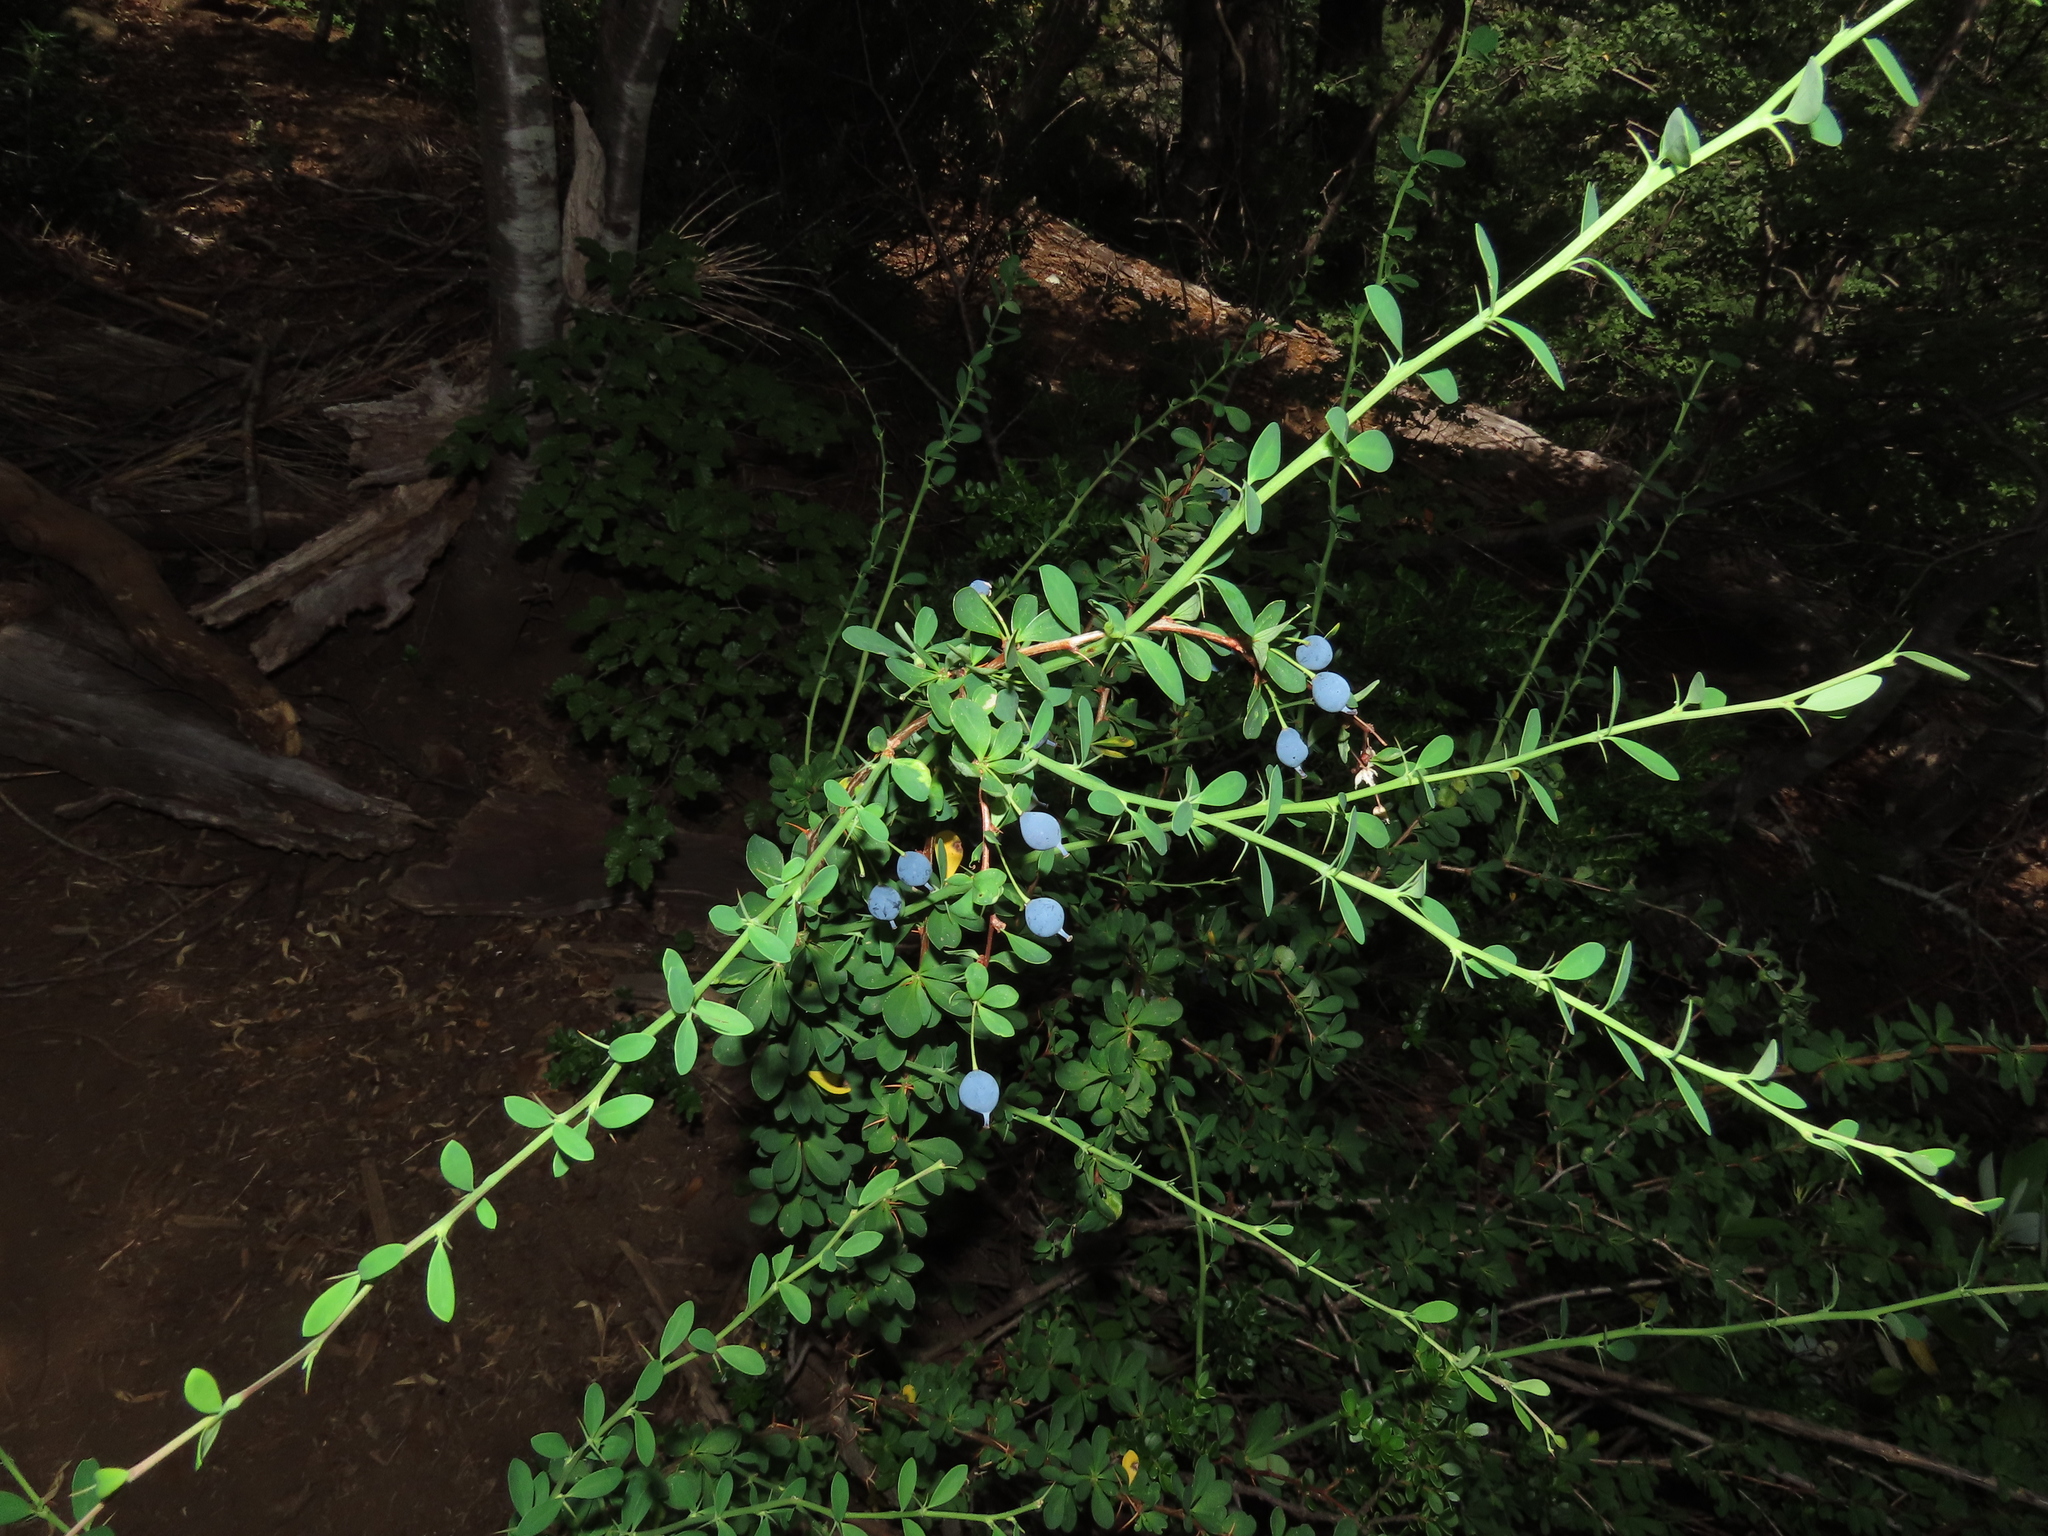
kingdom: Plantae
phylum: Tracheophyta
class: Magnoliopsida
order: Ranunculales
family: Berberidaceae
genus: Berberis
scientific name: Berberis montana
